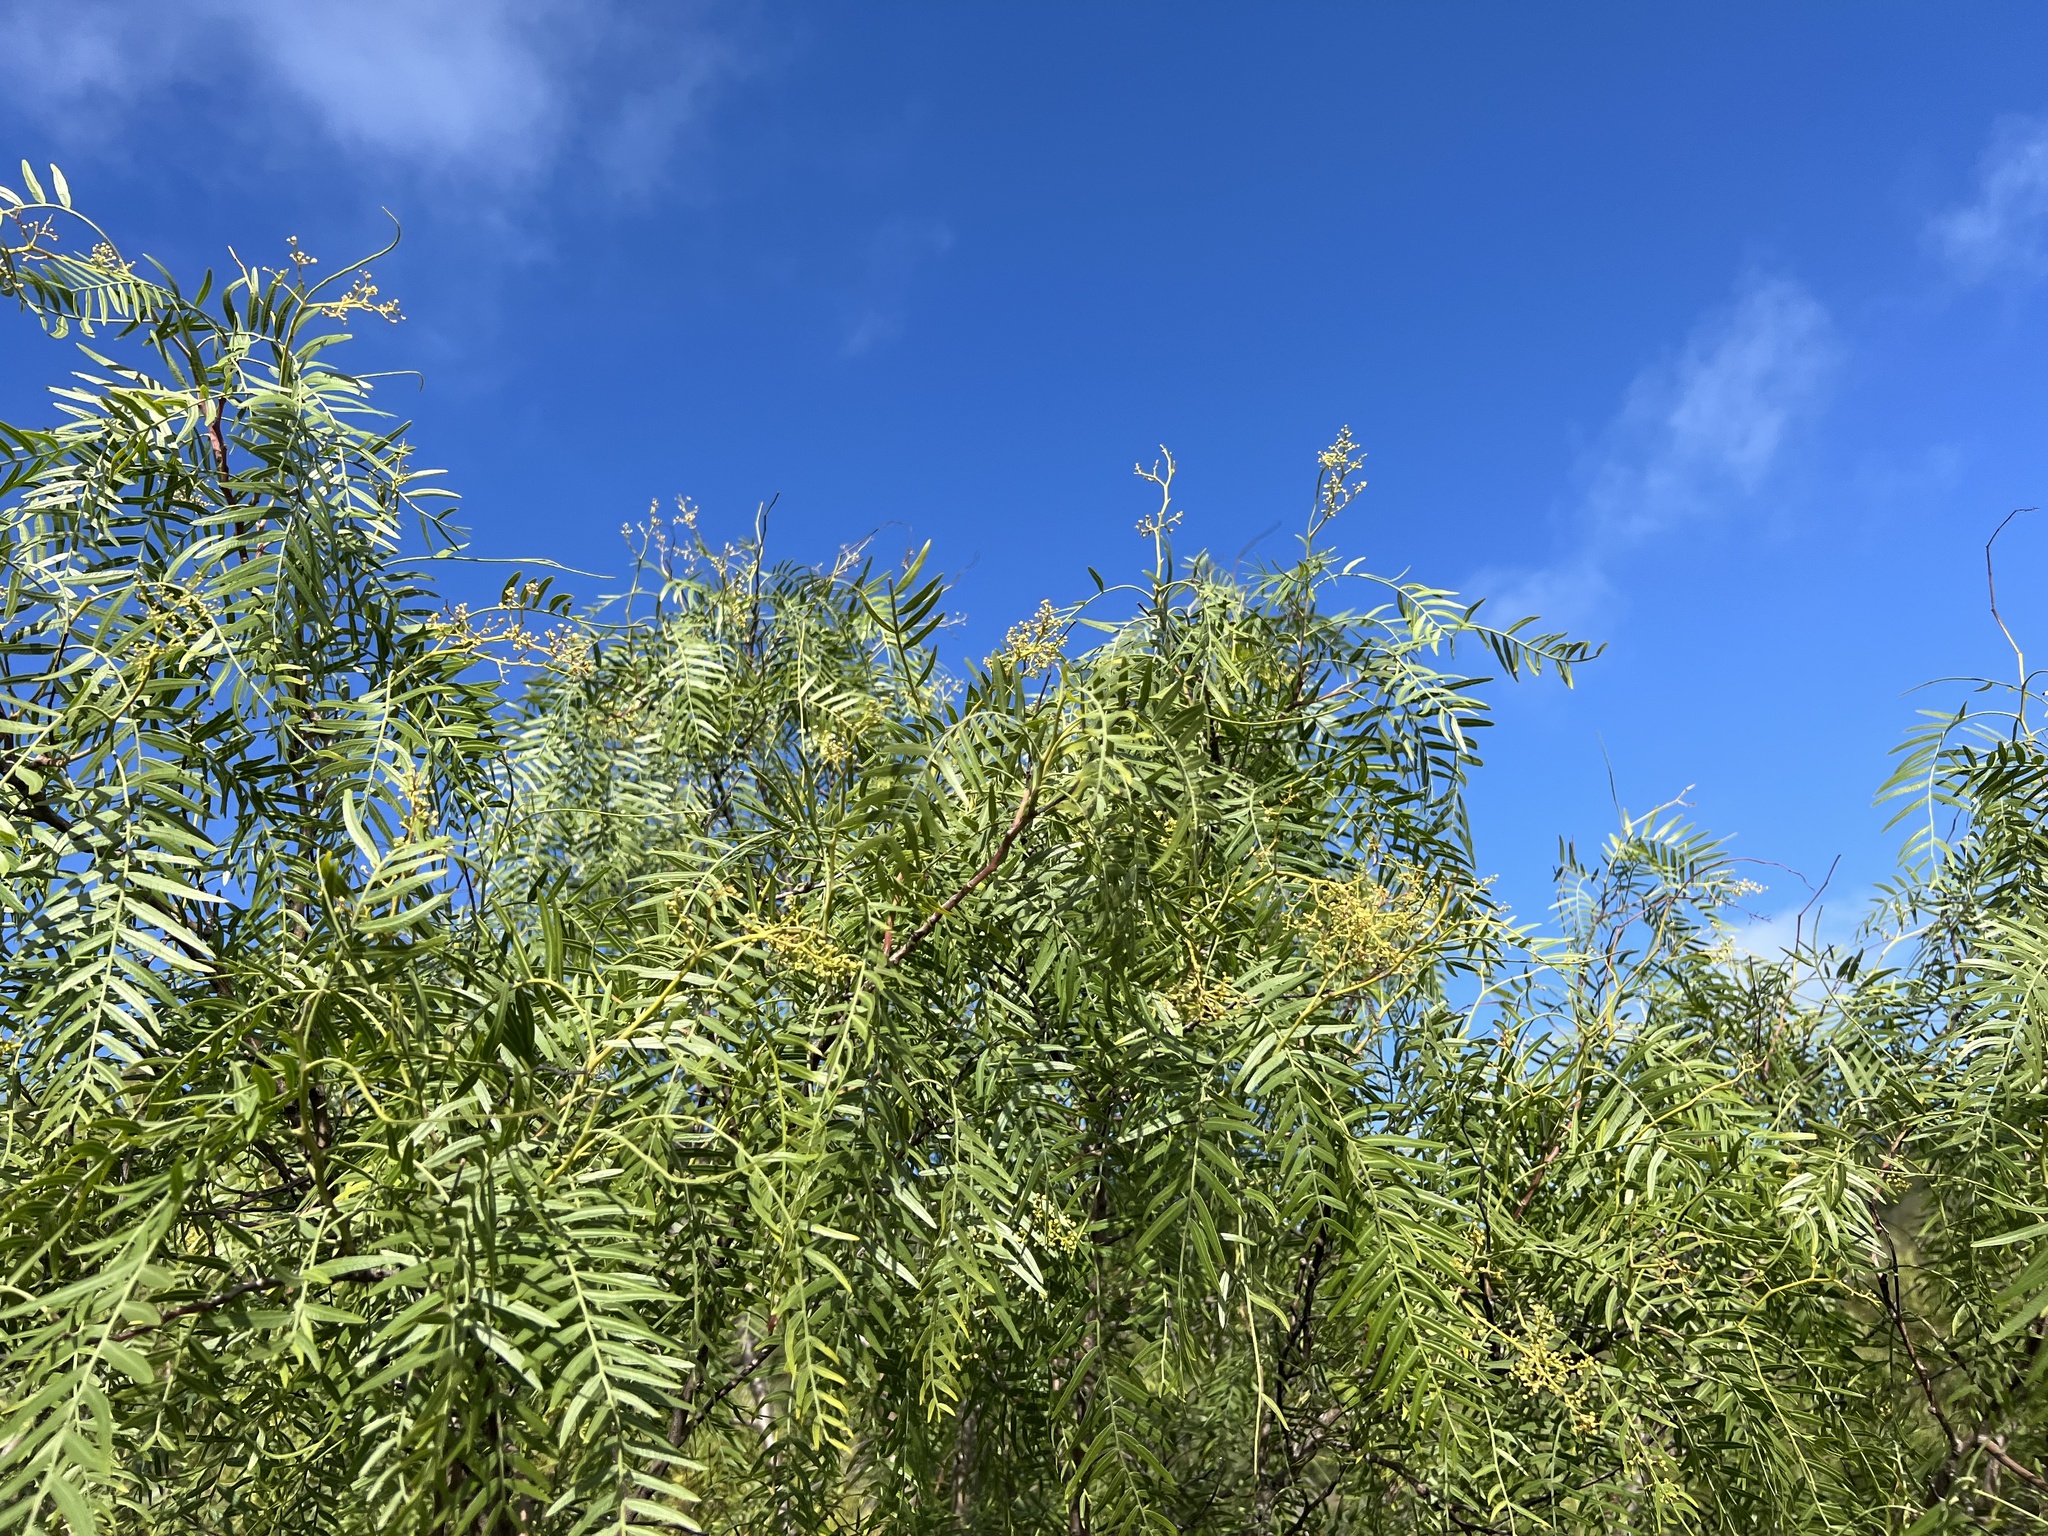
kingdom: Plantae
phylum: Tracheophyta
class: Magnoliopsida
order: Sapindales
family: Anacardiaceae
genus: Schinus
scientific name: Schinus molle
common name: Peruvian peppertree
